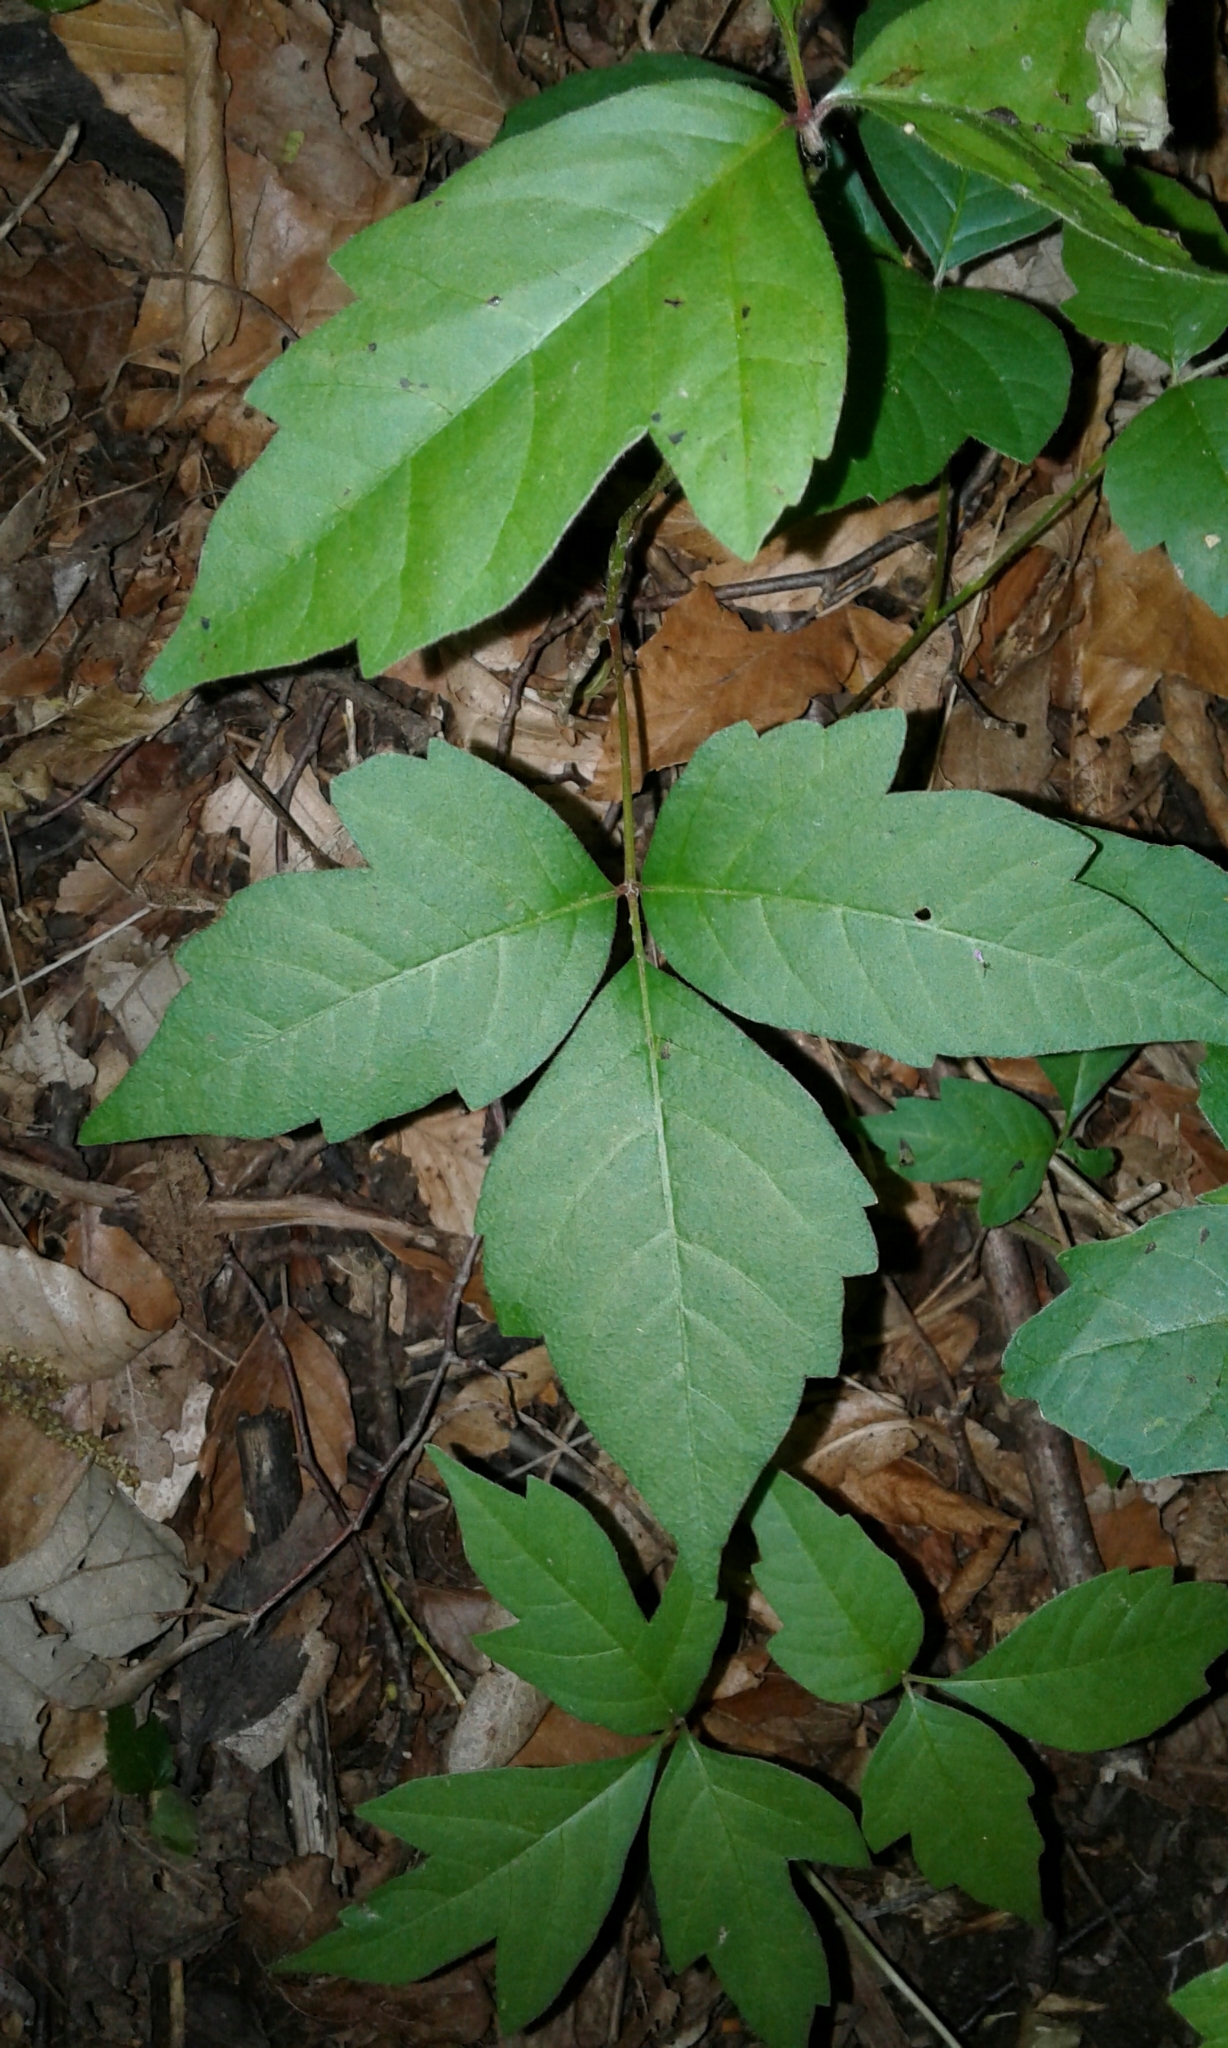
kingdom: Plantae
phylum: Tracheophyta
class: Magnoliopsida
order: Sapindales
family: Anacardiaceae
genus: Toxicodendron
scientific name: Toxicodendron radicans
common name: Poison ivy
